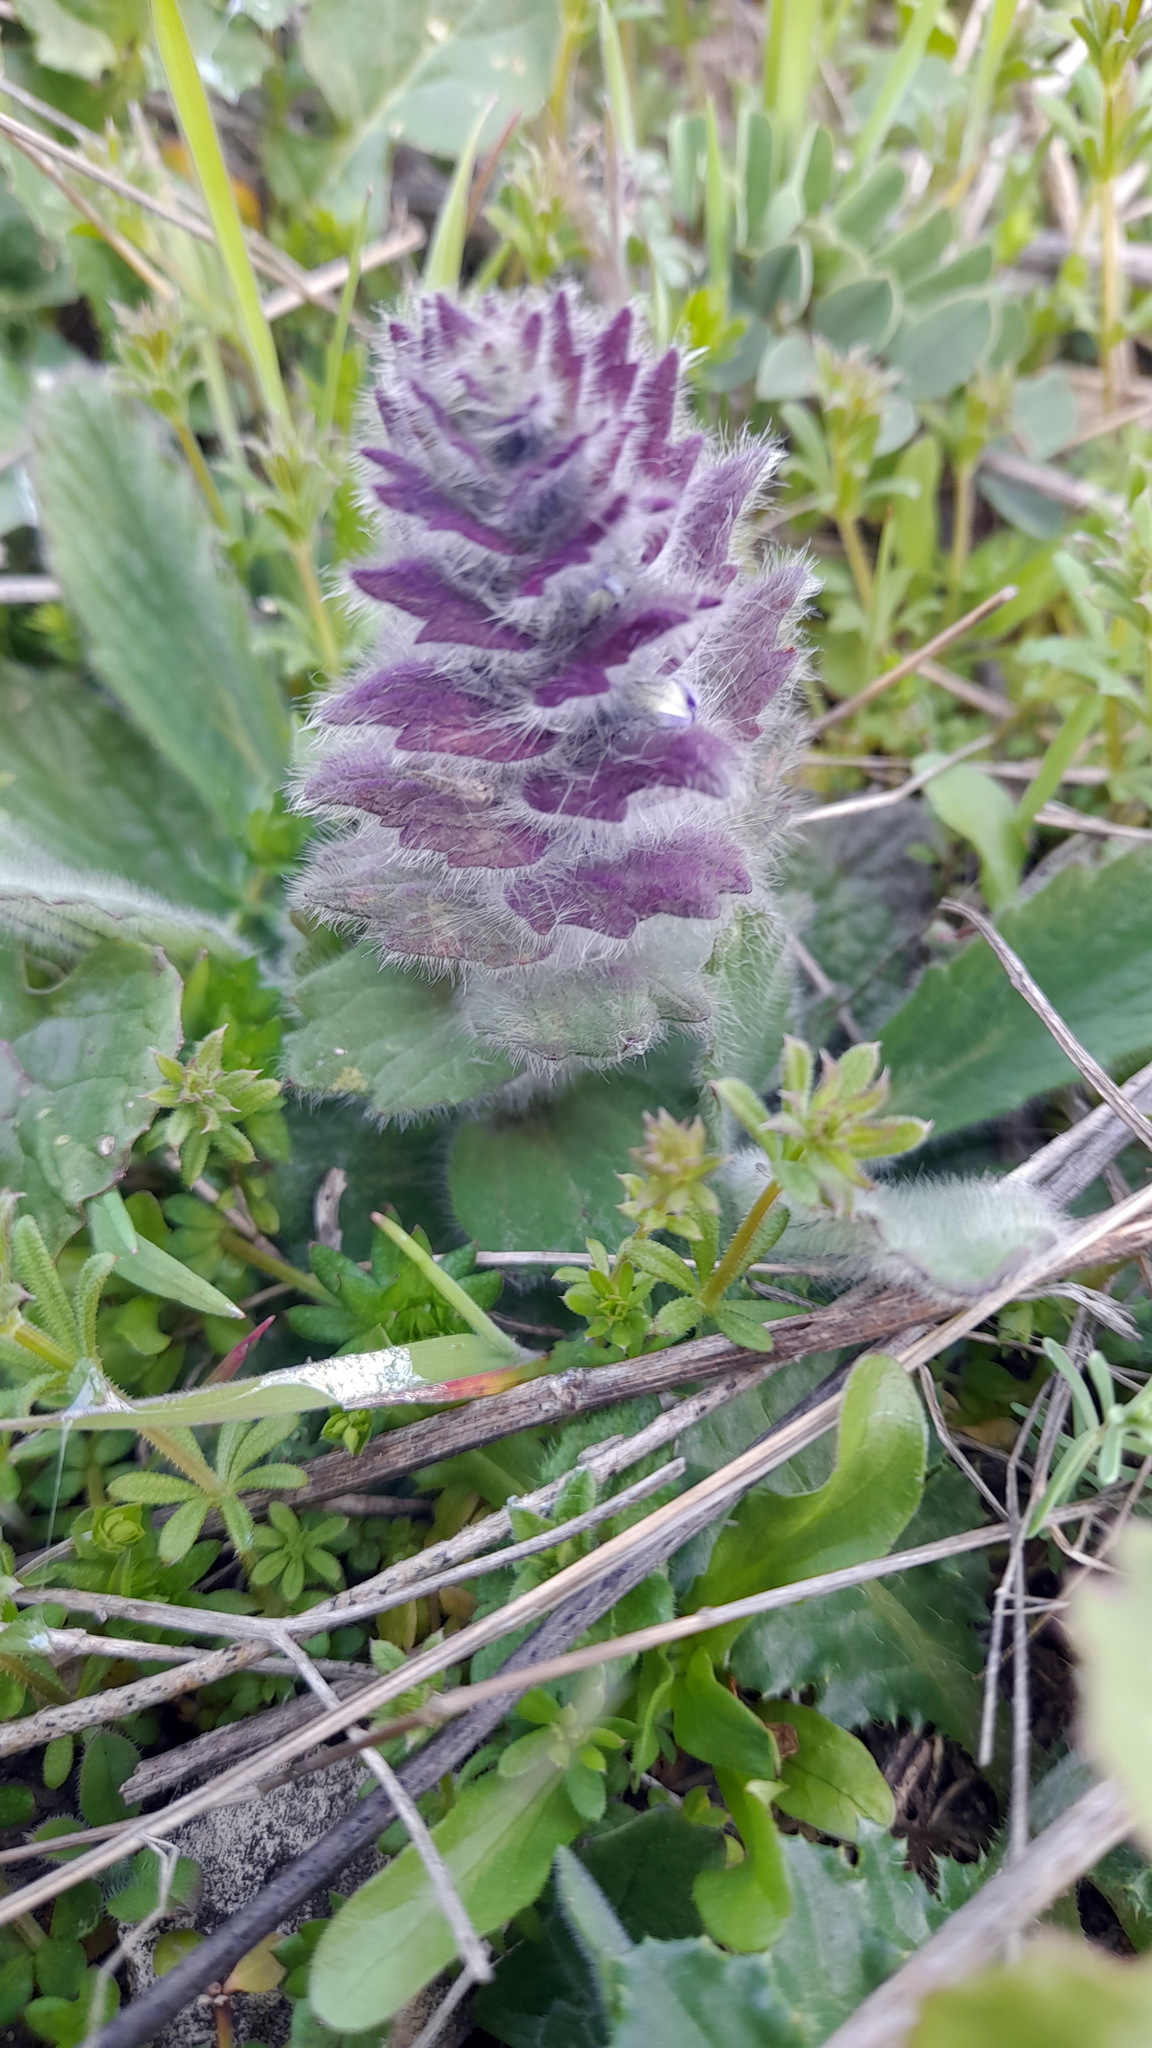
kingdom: Plantae
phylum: Tracheophyta
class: Magnoliopsida
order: Lamiales
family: Lamiaceae
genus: Ajuga
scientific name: Ajuga orientalis
